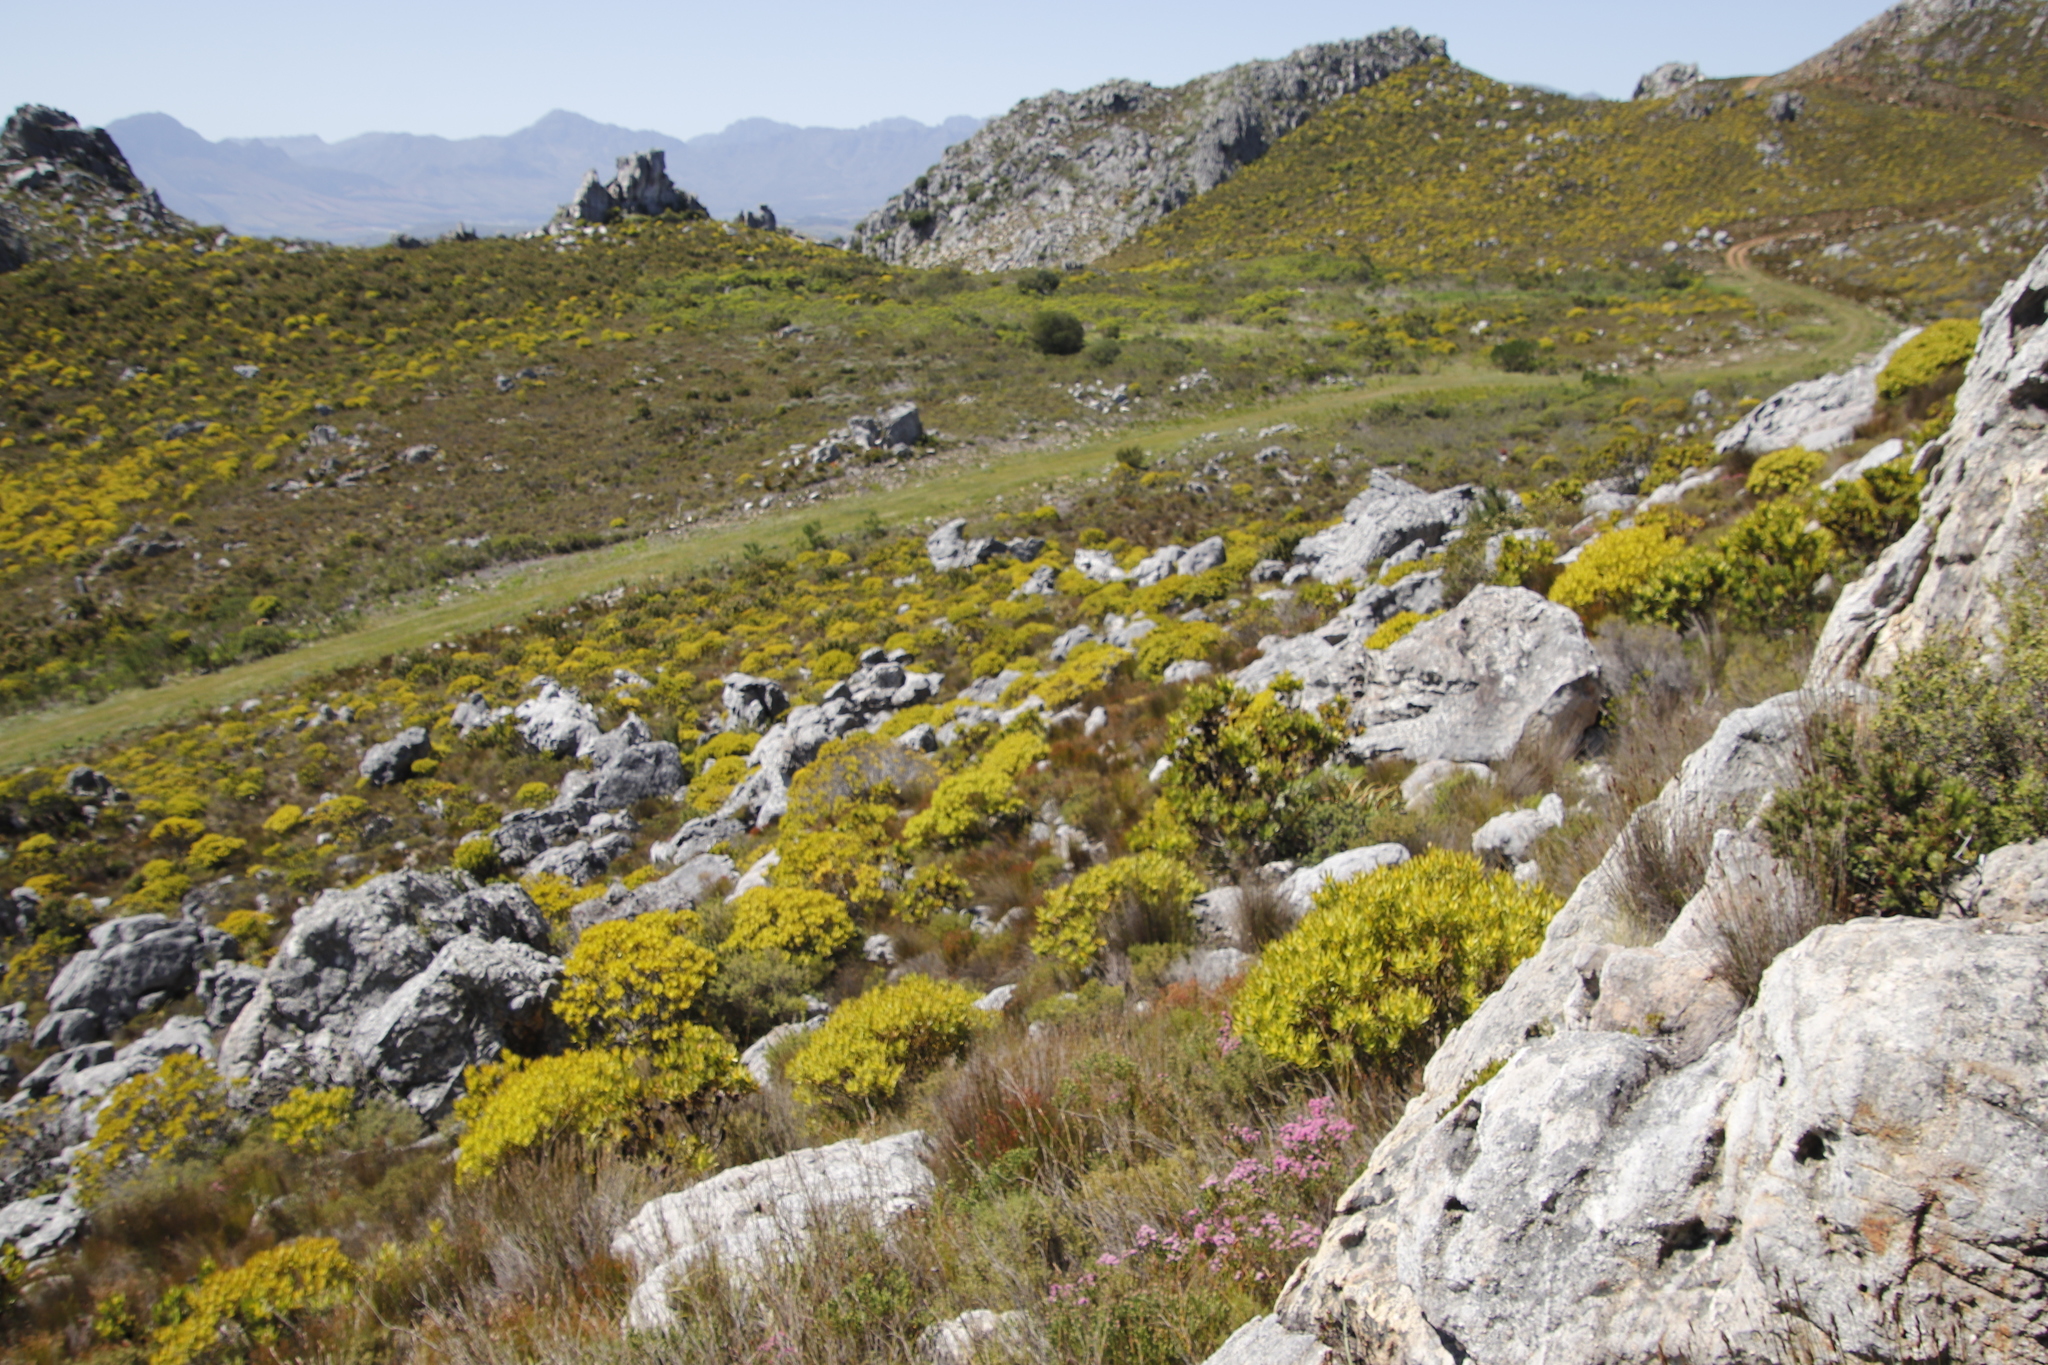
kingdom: Plantae
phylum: Tracheophyta
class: Magnoliopsida
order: Proteales
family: Proteaceae
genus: Leucadendron
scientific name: Leucadendron laureolum
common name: Golden sunshinebush
